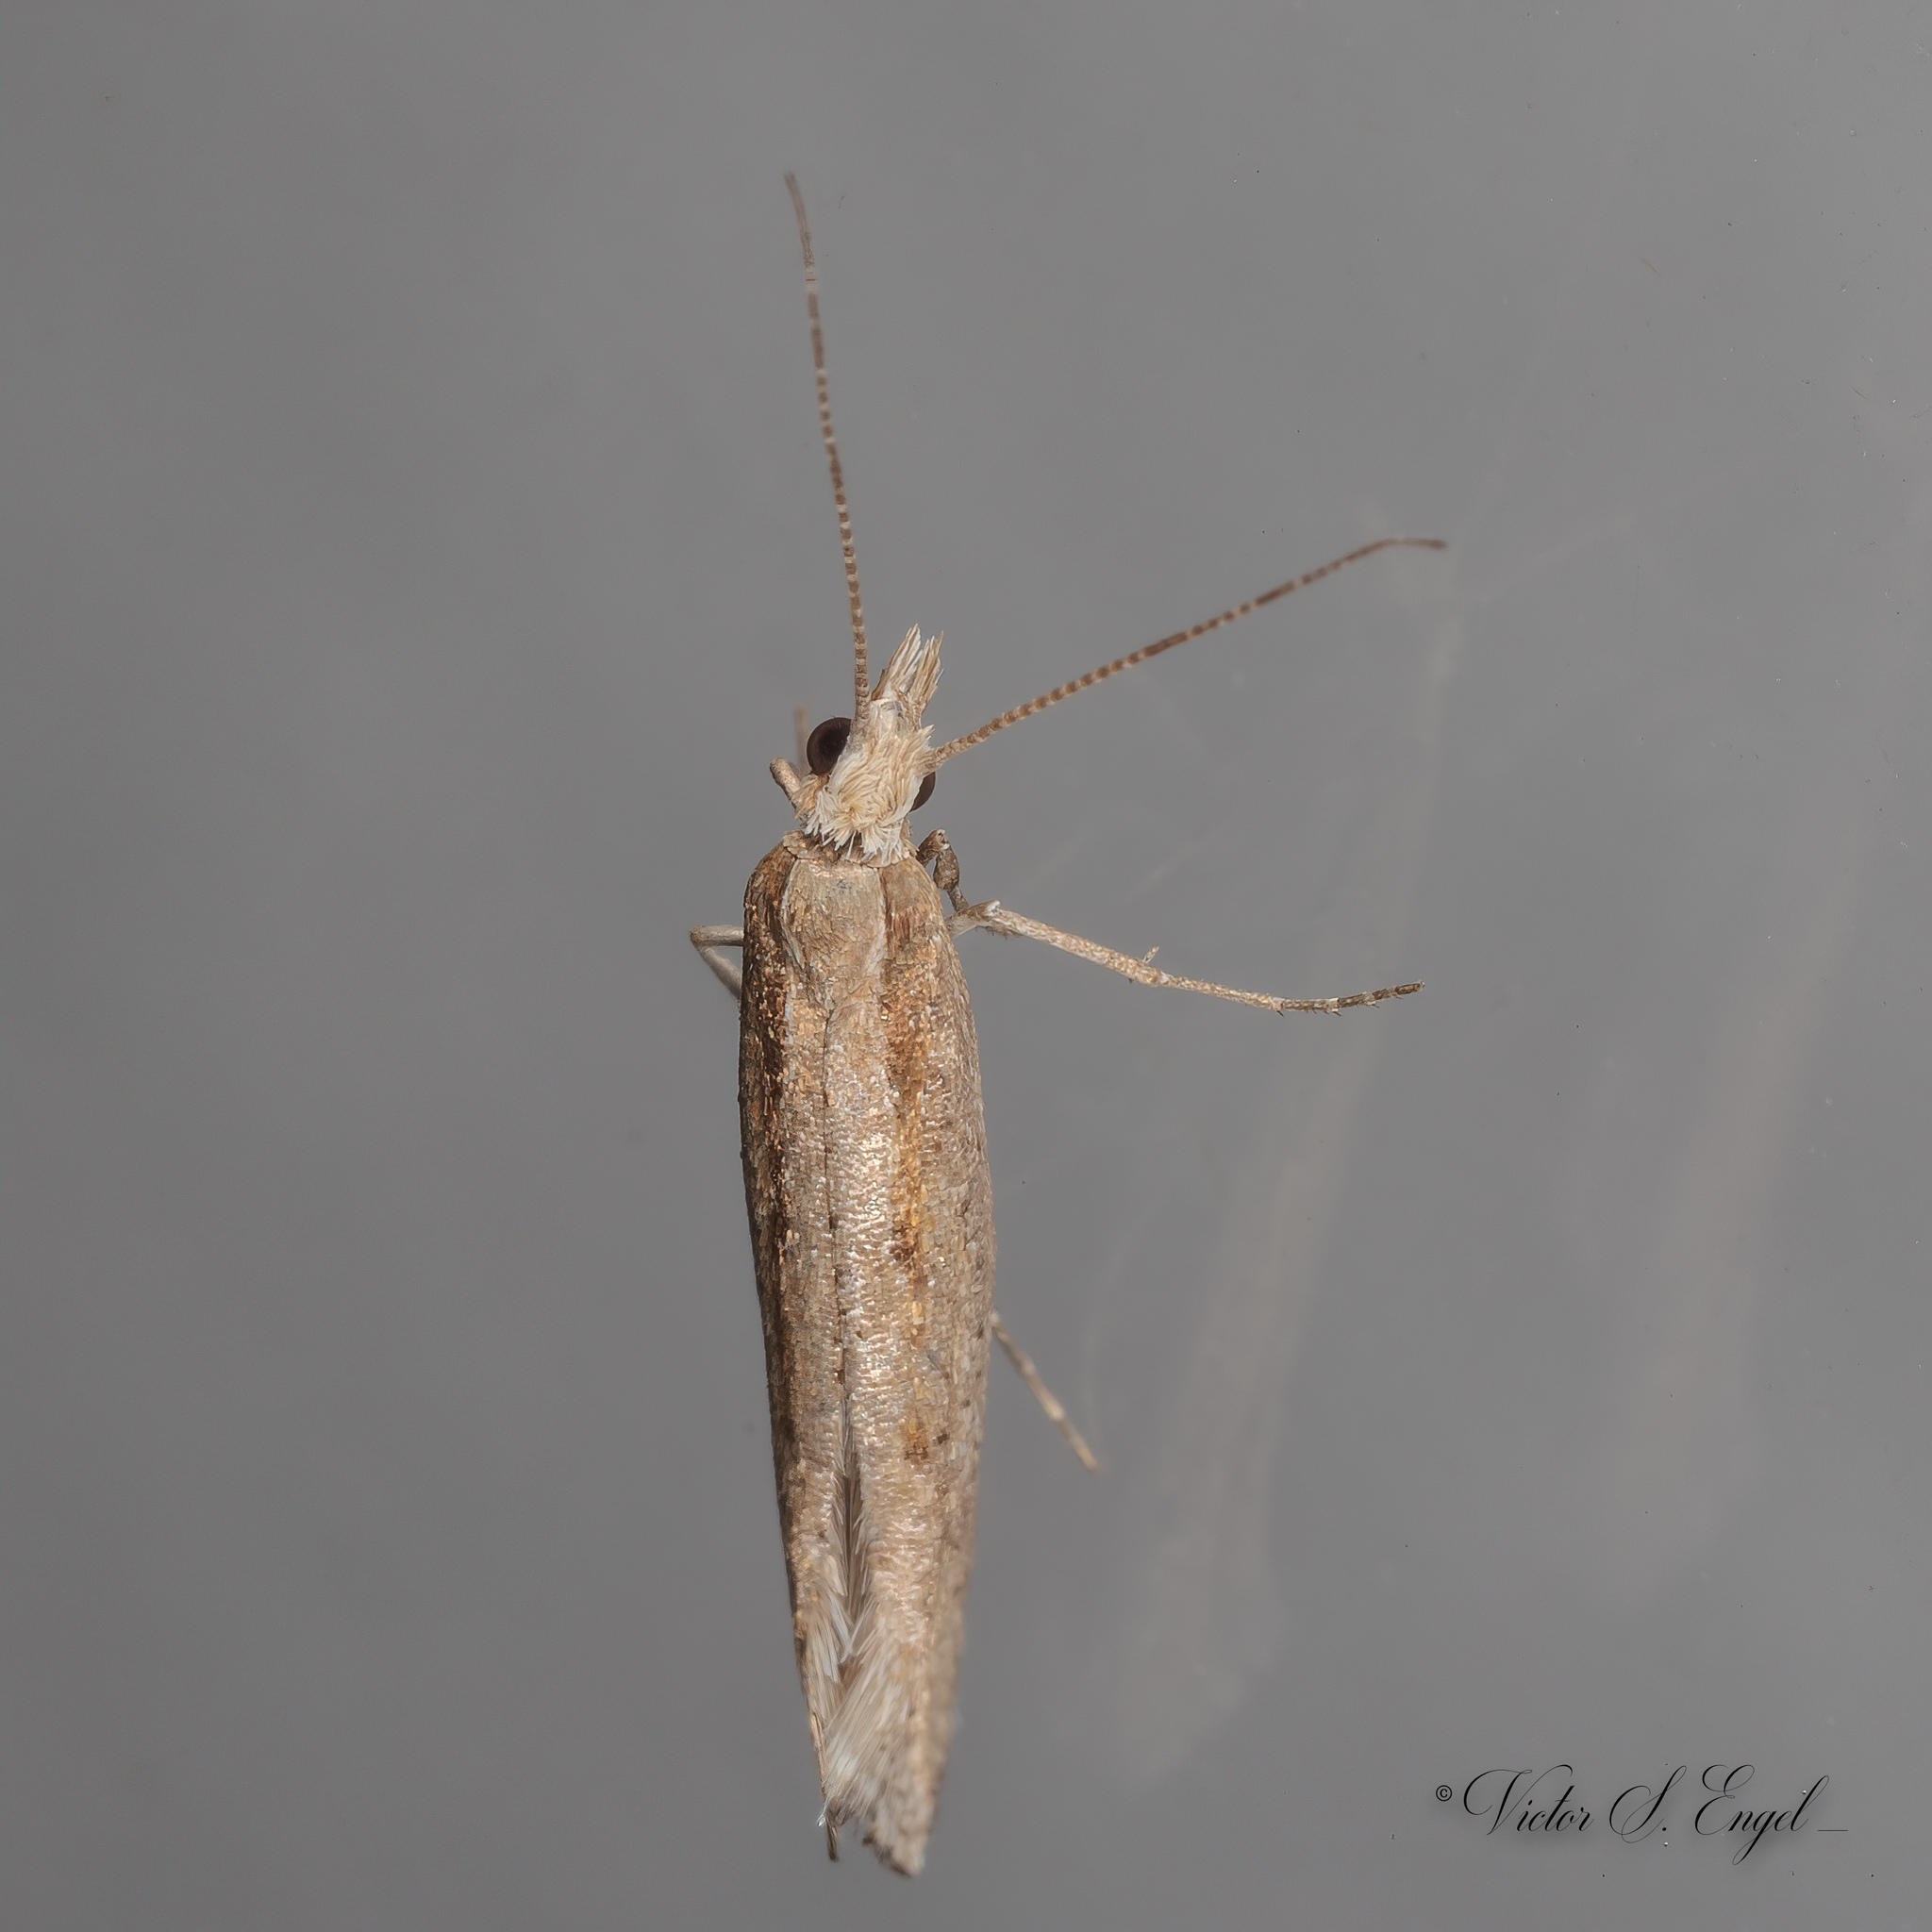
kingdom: Animalia
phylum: Arthropoda
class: Insecta
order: Lepidoptera
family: Plutellidae
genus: Plutella
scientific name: Plutella xylostella
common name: Diamond-back moth
